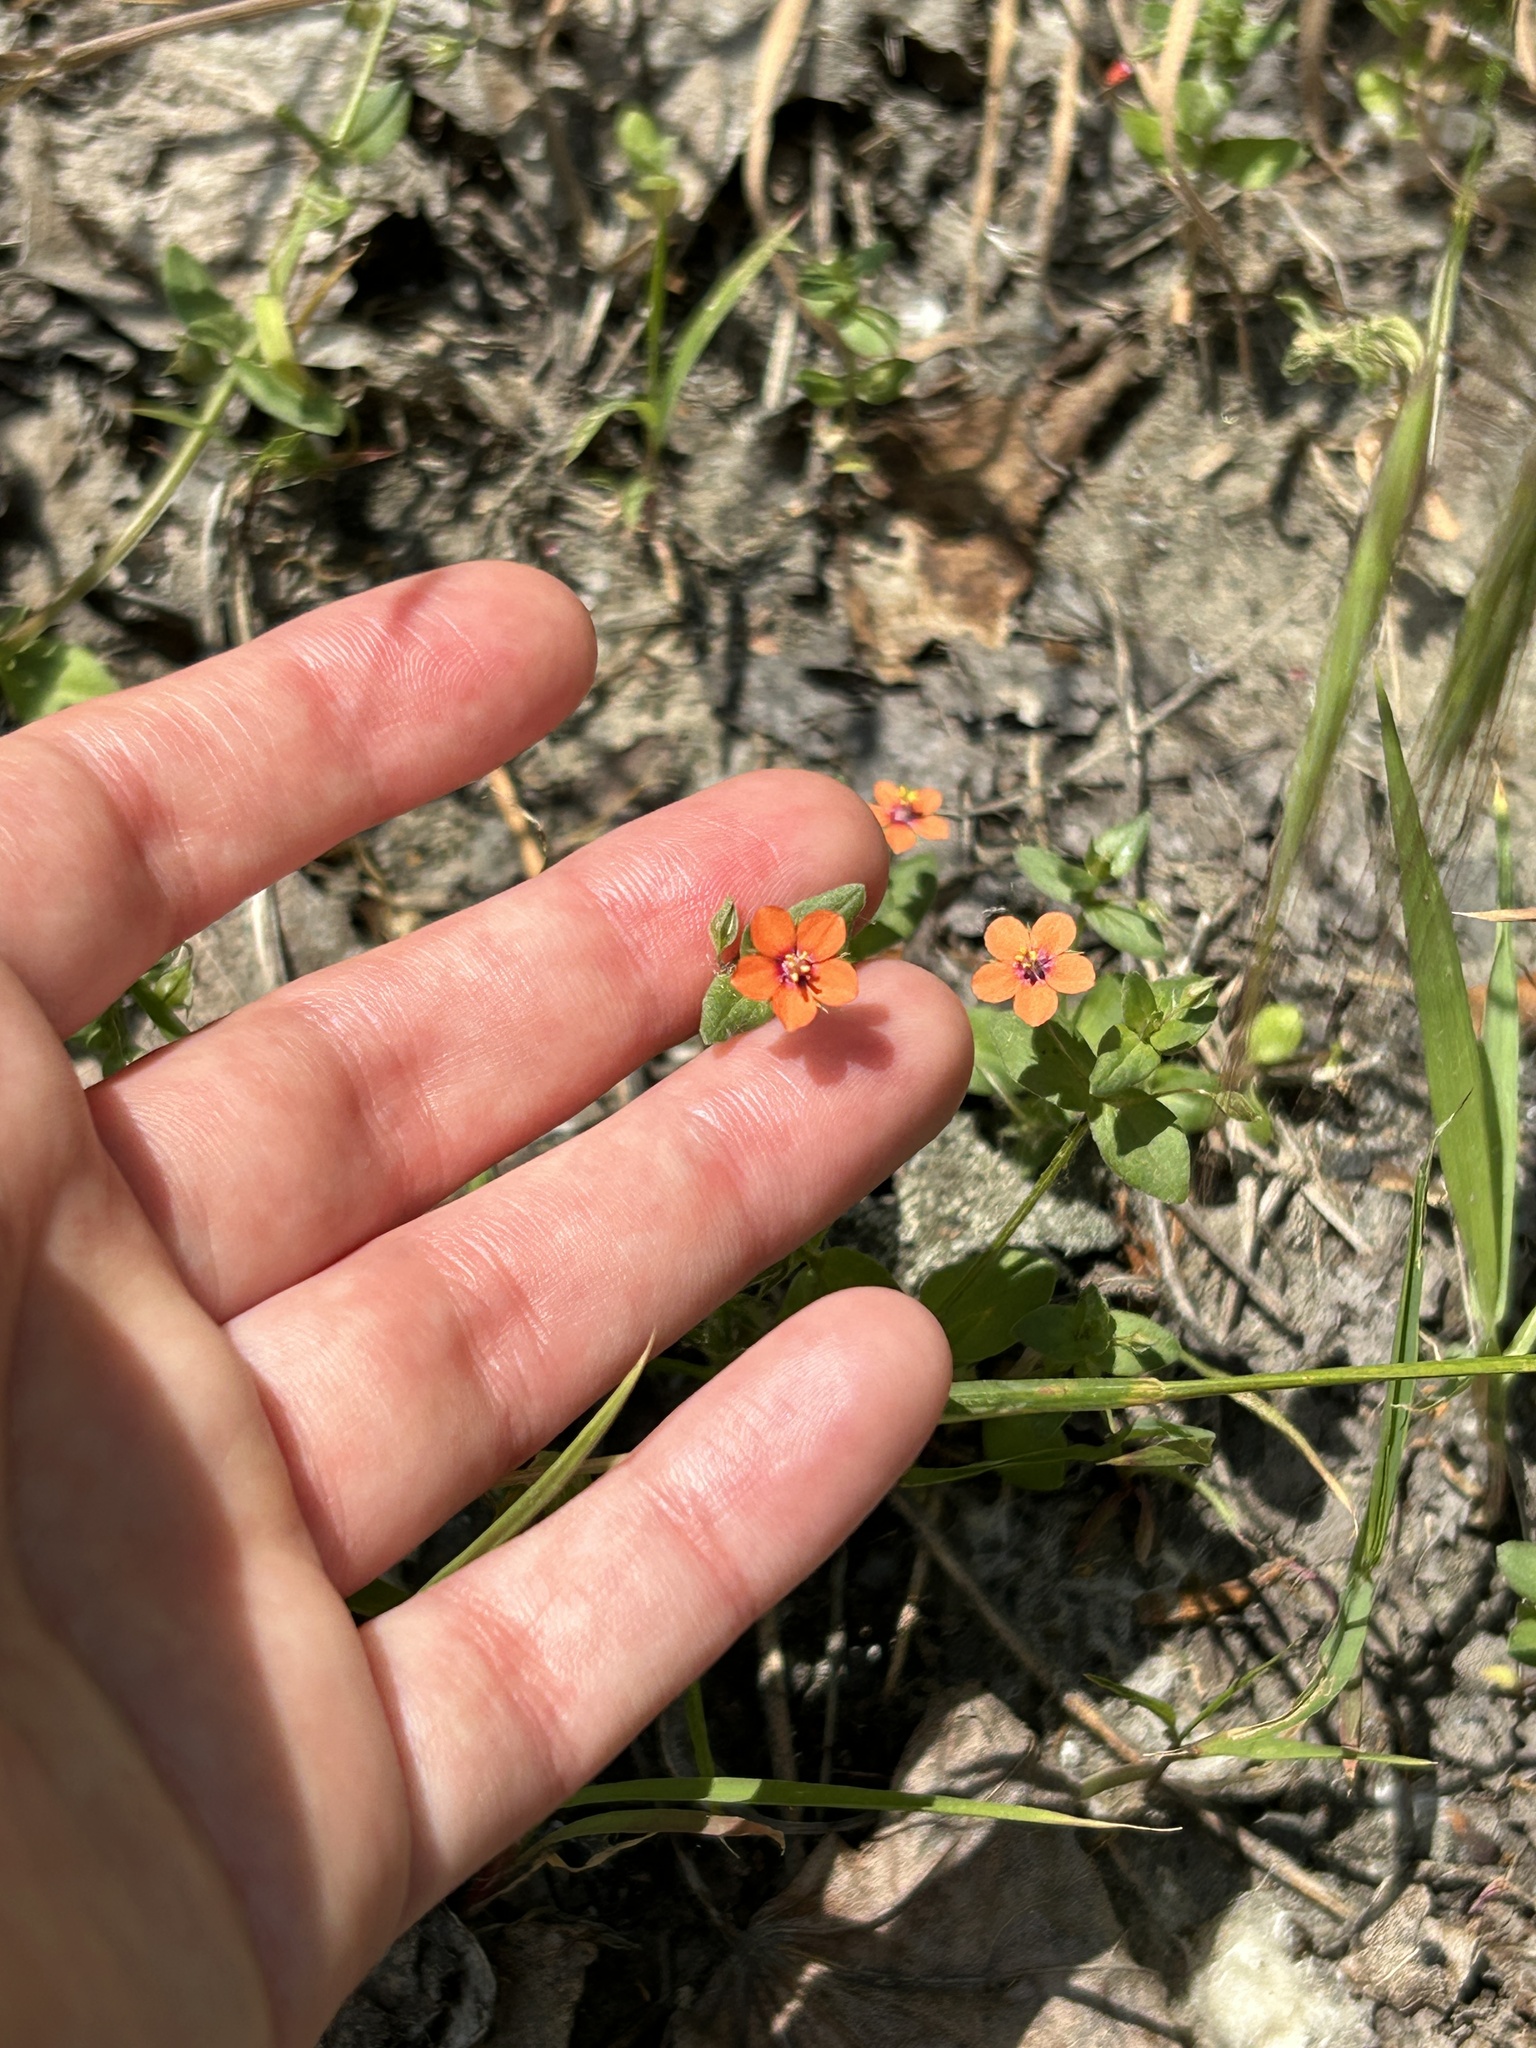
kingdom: Plantae
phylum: Tracheophyta
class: Magnoliopsida
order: Ericales
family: Primulaceae
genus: Lysimachia
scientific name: Lysimachia arvensis
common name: Scarlet pimpernel
